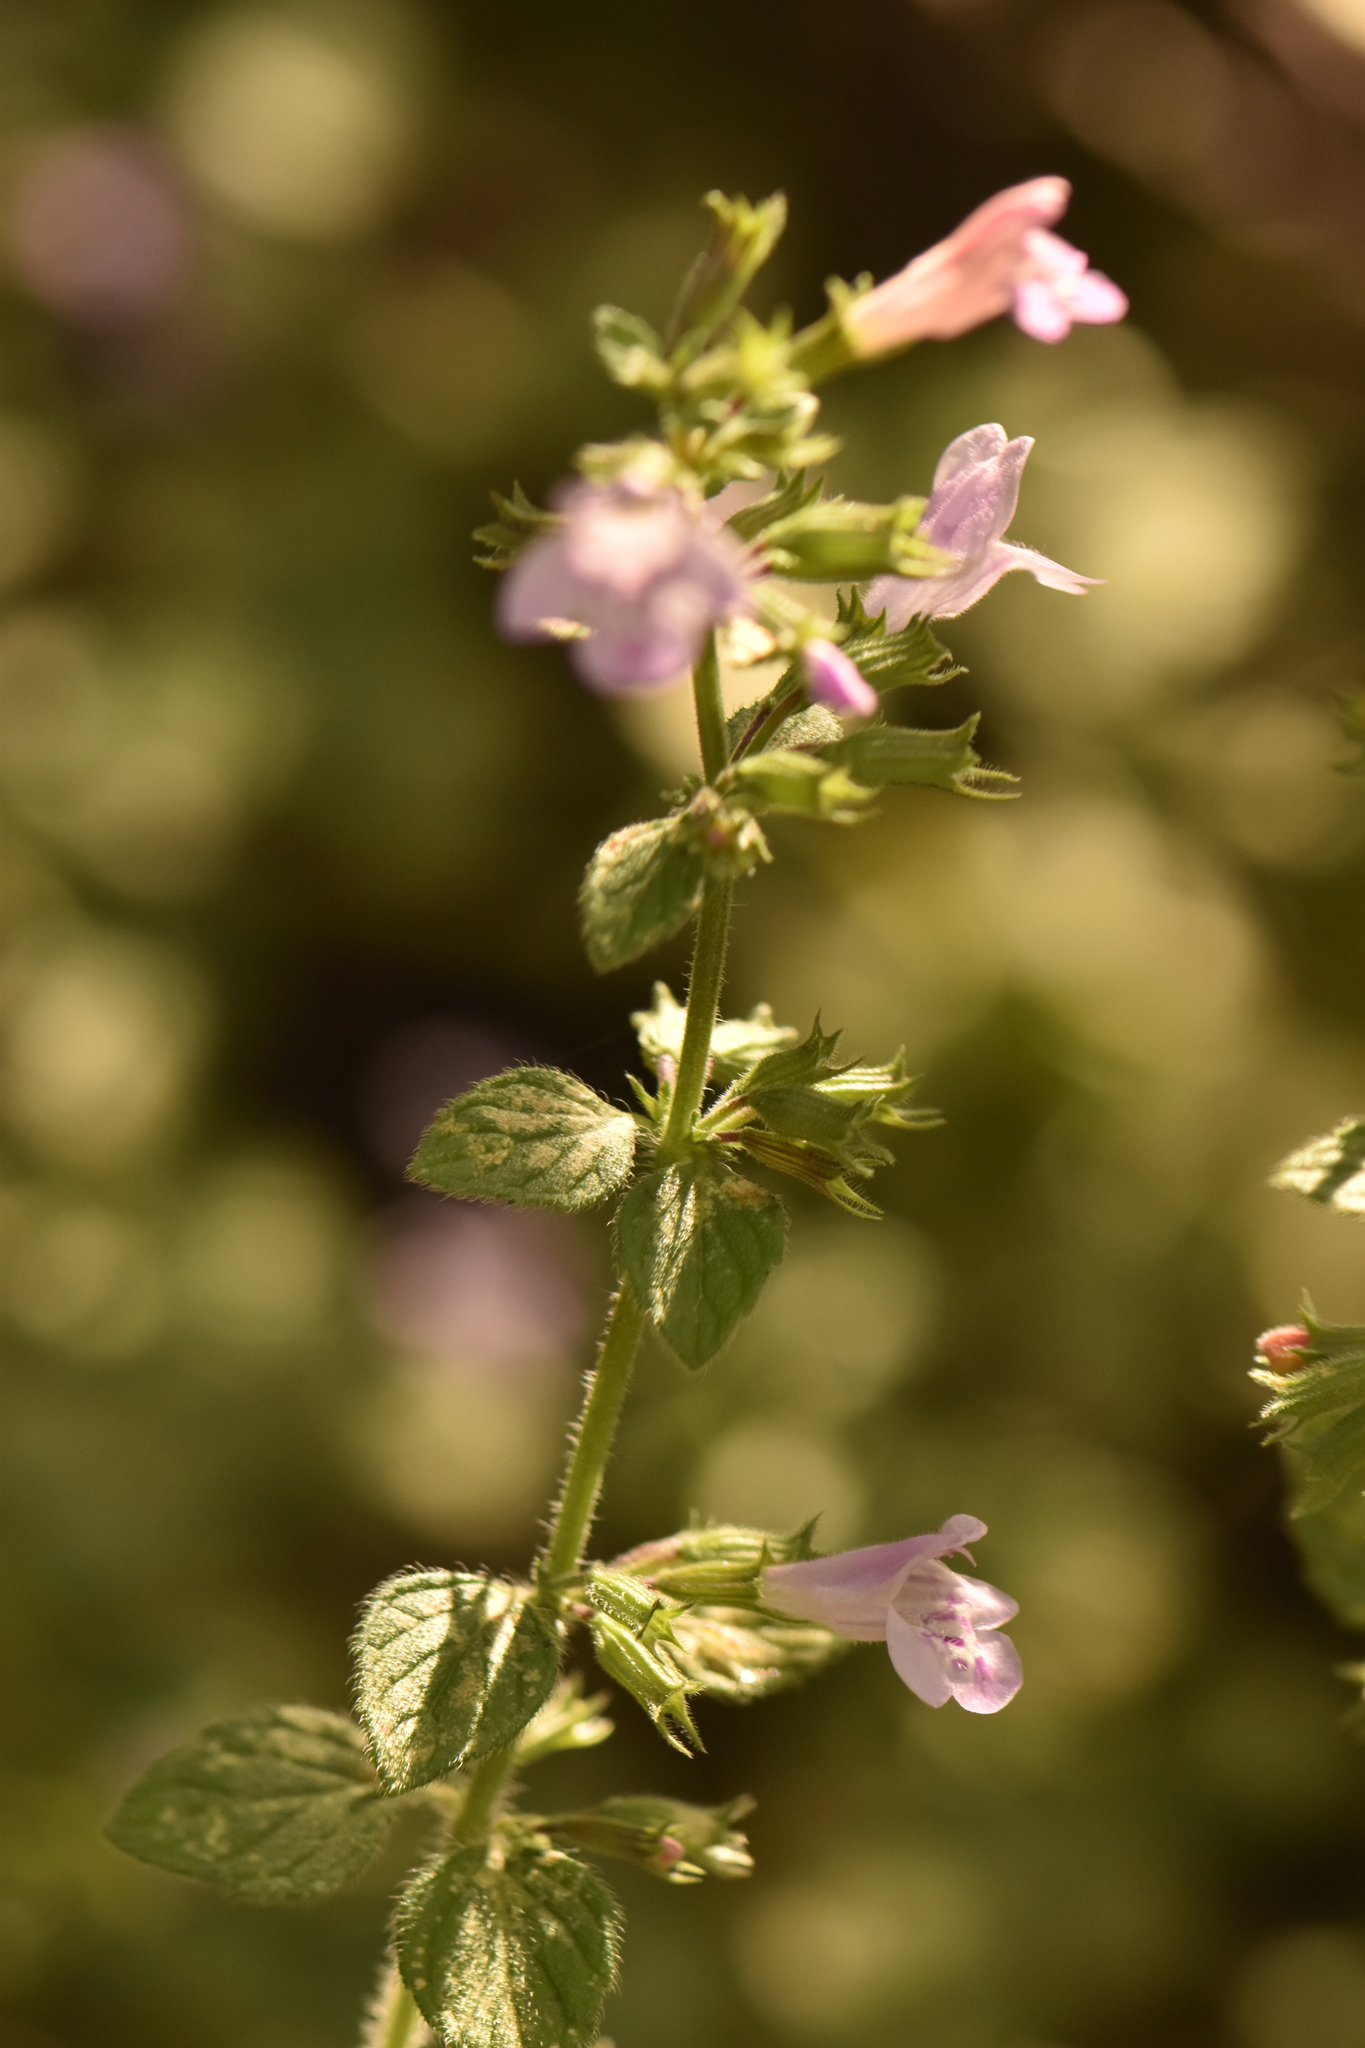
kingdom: Plantae
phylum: Tracheophyta
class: Magnoliopsida
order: Lamiales
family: Lamiaceae
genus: Clinopodium
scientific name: Clinopodium menthifolium
